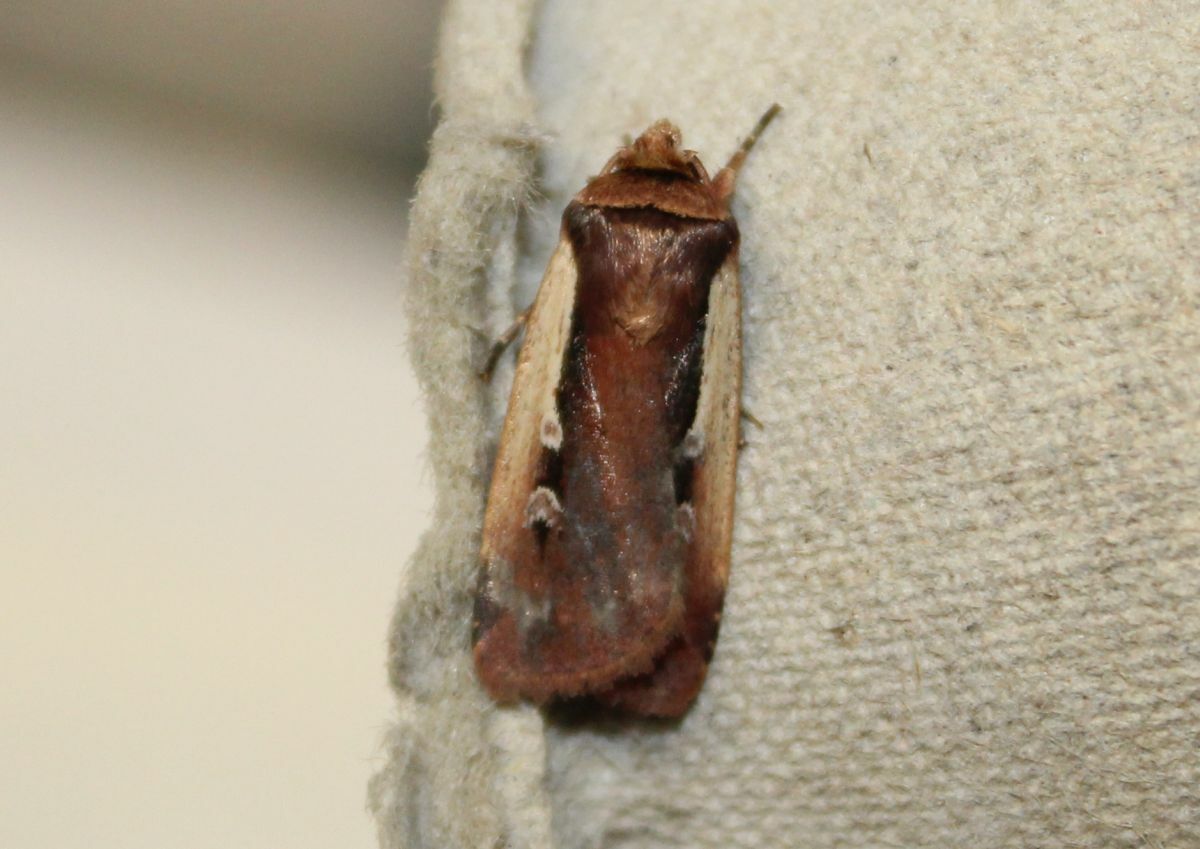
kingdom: Animalia
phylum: Arthropoda
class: Insecta
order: Lepidoptera
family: Noctuidae
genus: Ochropleura
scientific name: Ochropleura plecta
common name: Flame shoulder
